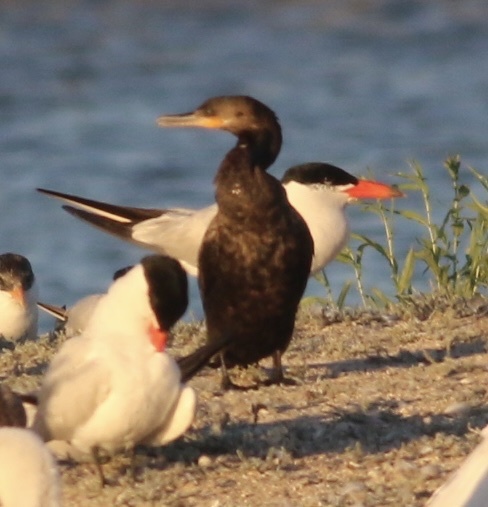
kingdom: Animalia
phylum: Chordata
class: Aves
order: Suliformes
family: Phalacrocoracidae
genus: Phalacrocorax
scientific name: Phalacrocorax brasilianus
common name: Neotropic cormorant
